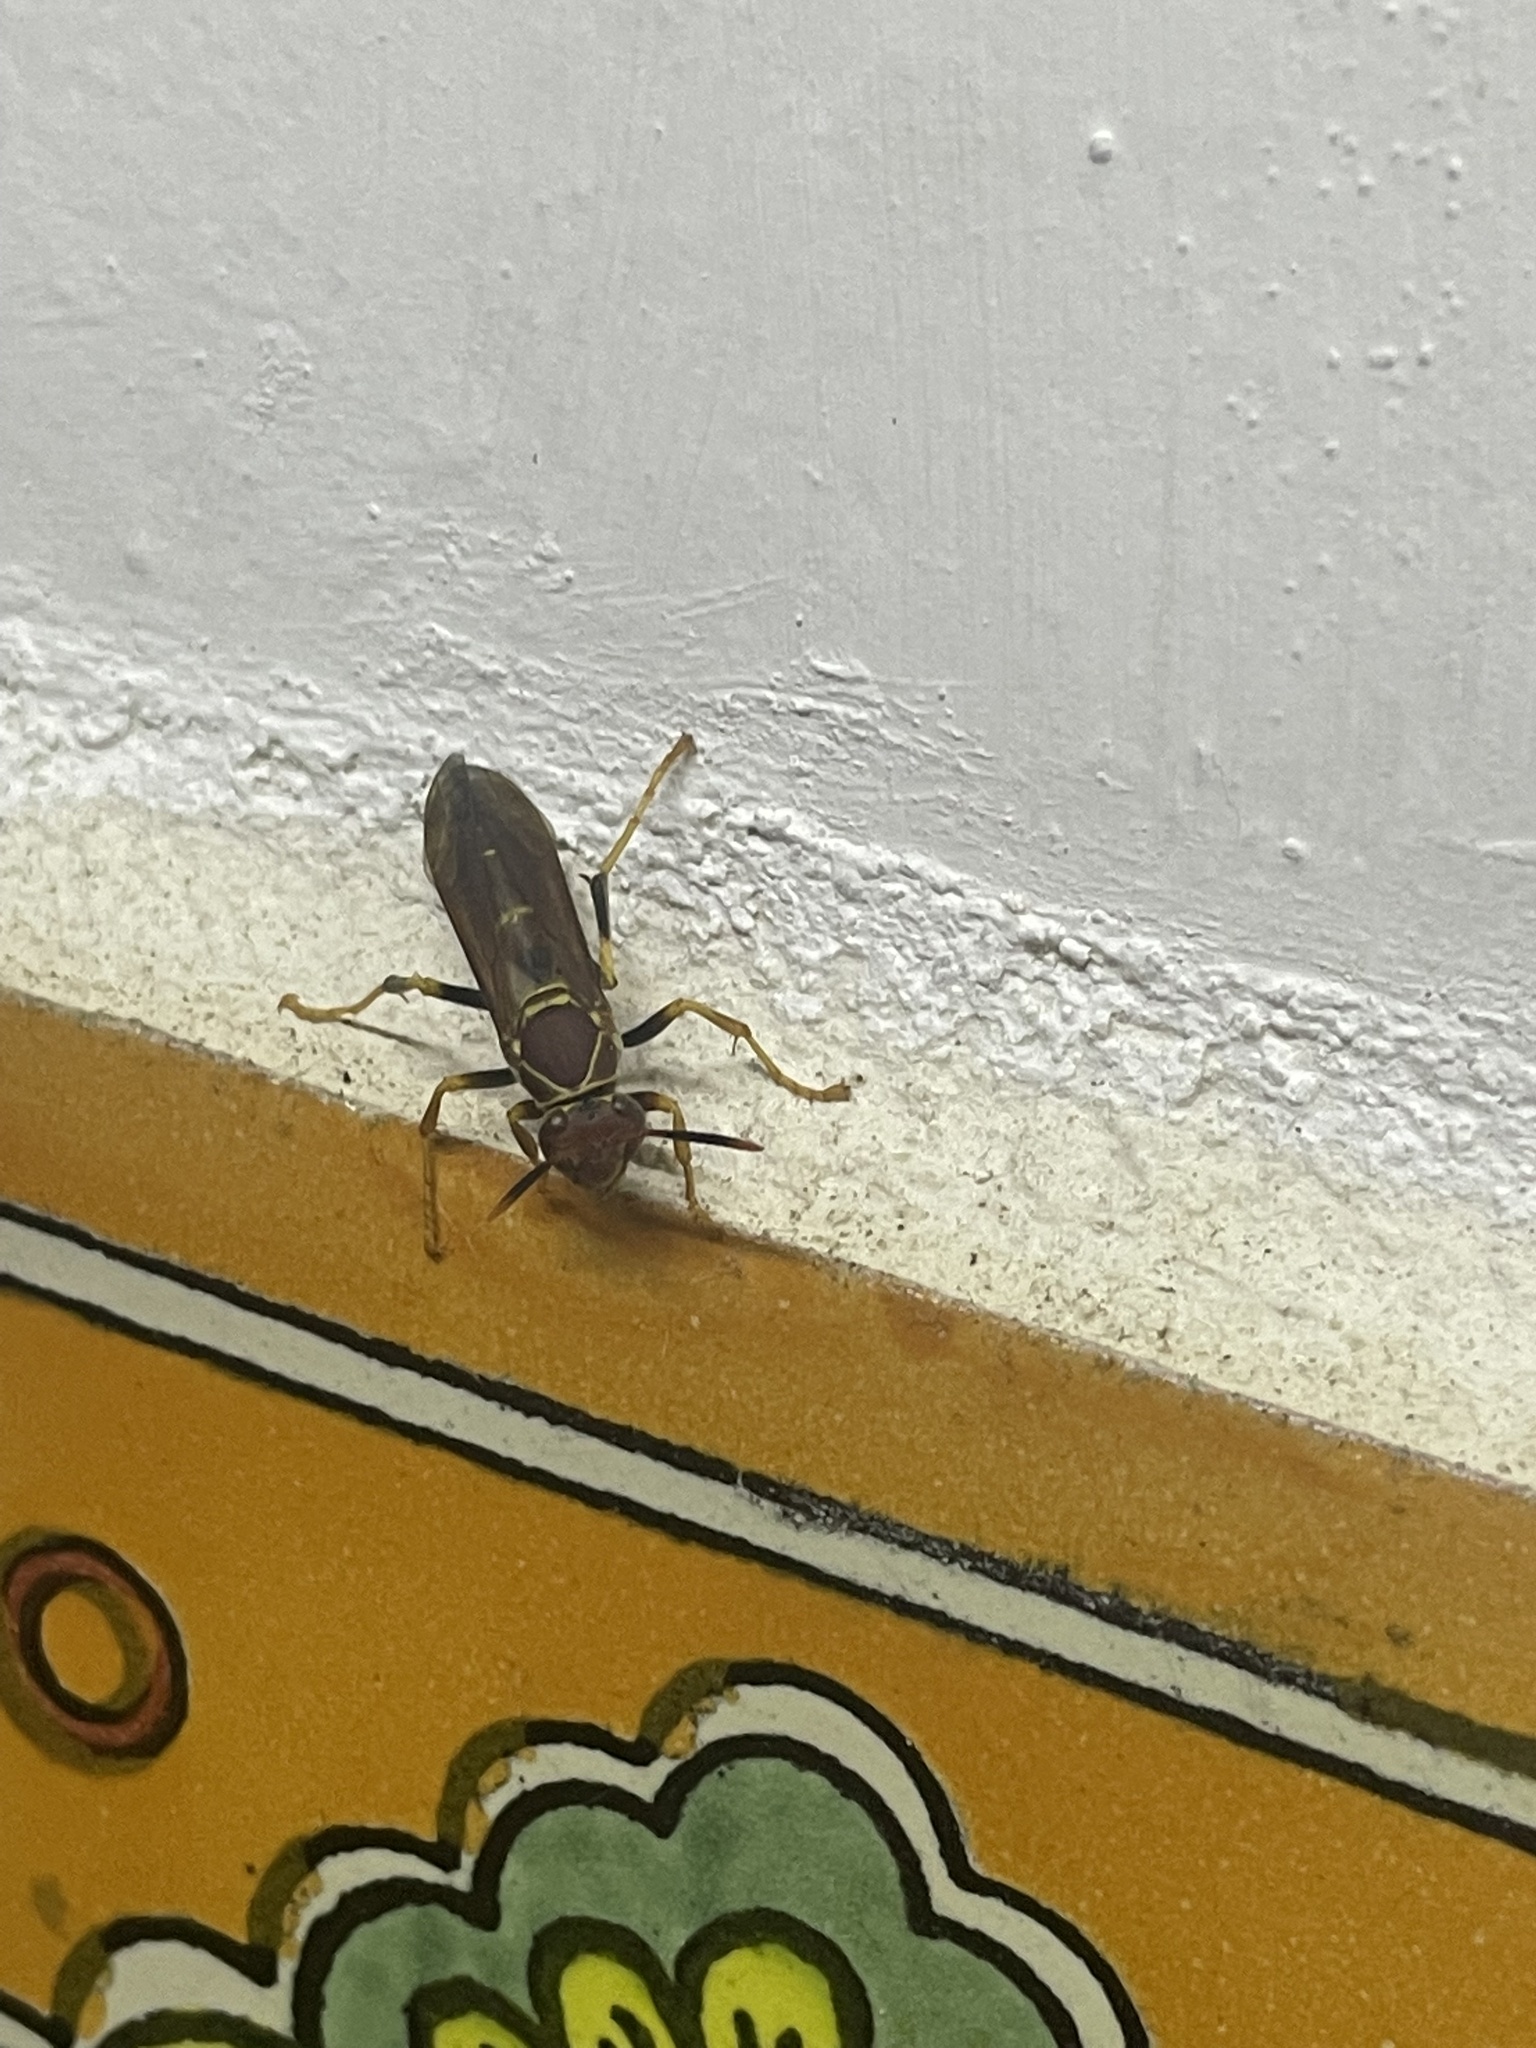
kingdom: Animalia
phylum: Arthropoda
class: Insecta
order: Hymenoptera
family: Eumenidae
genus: Polistes
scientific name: Polistes instabilis
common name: Unstable paper wasp
